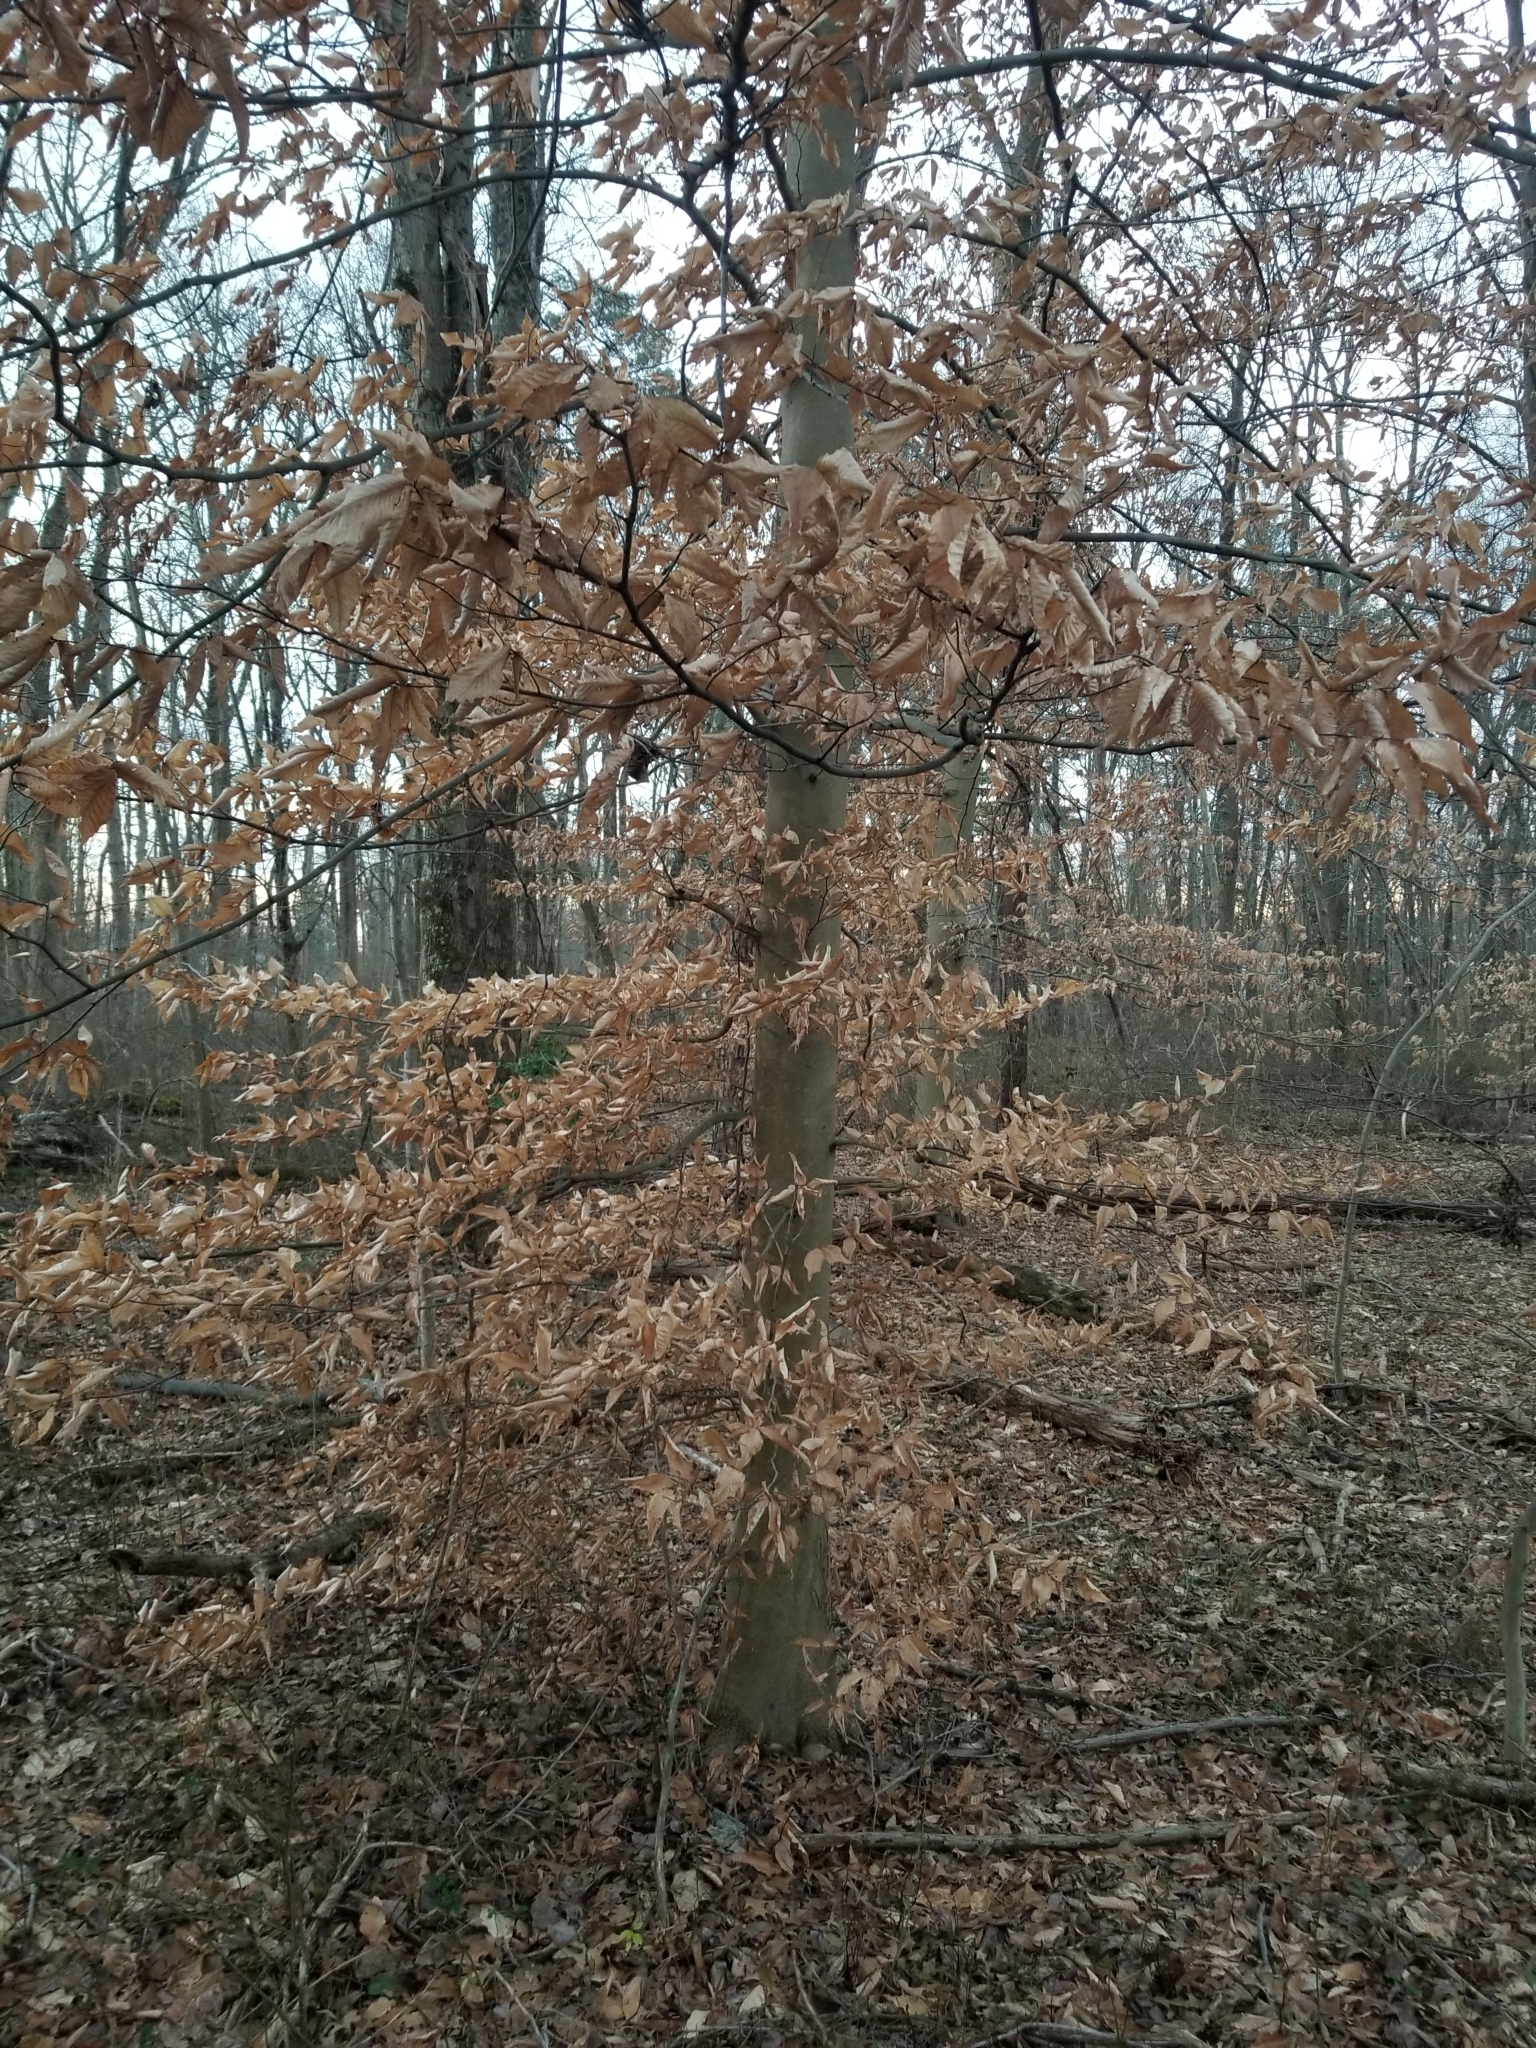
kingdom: Plantae
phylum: Tracheophyta
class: Magnoliopsida
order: Fagales
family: Fagaceae
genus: Fagus
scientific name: Fagus grandifolia
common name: American beech
